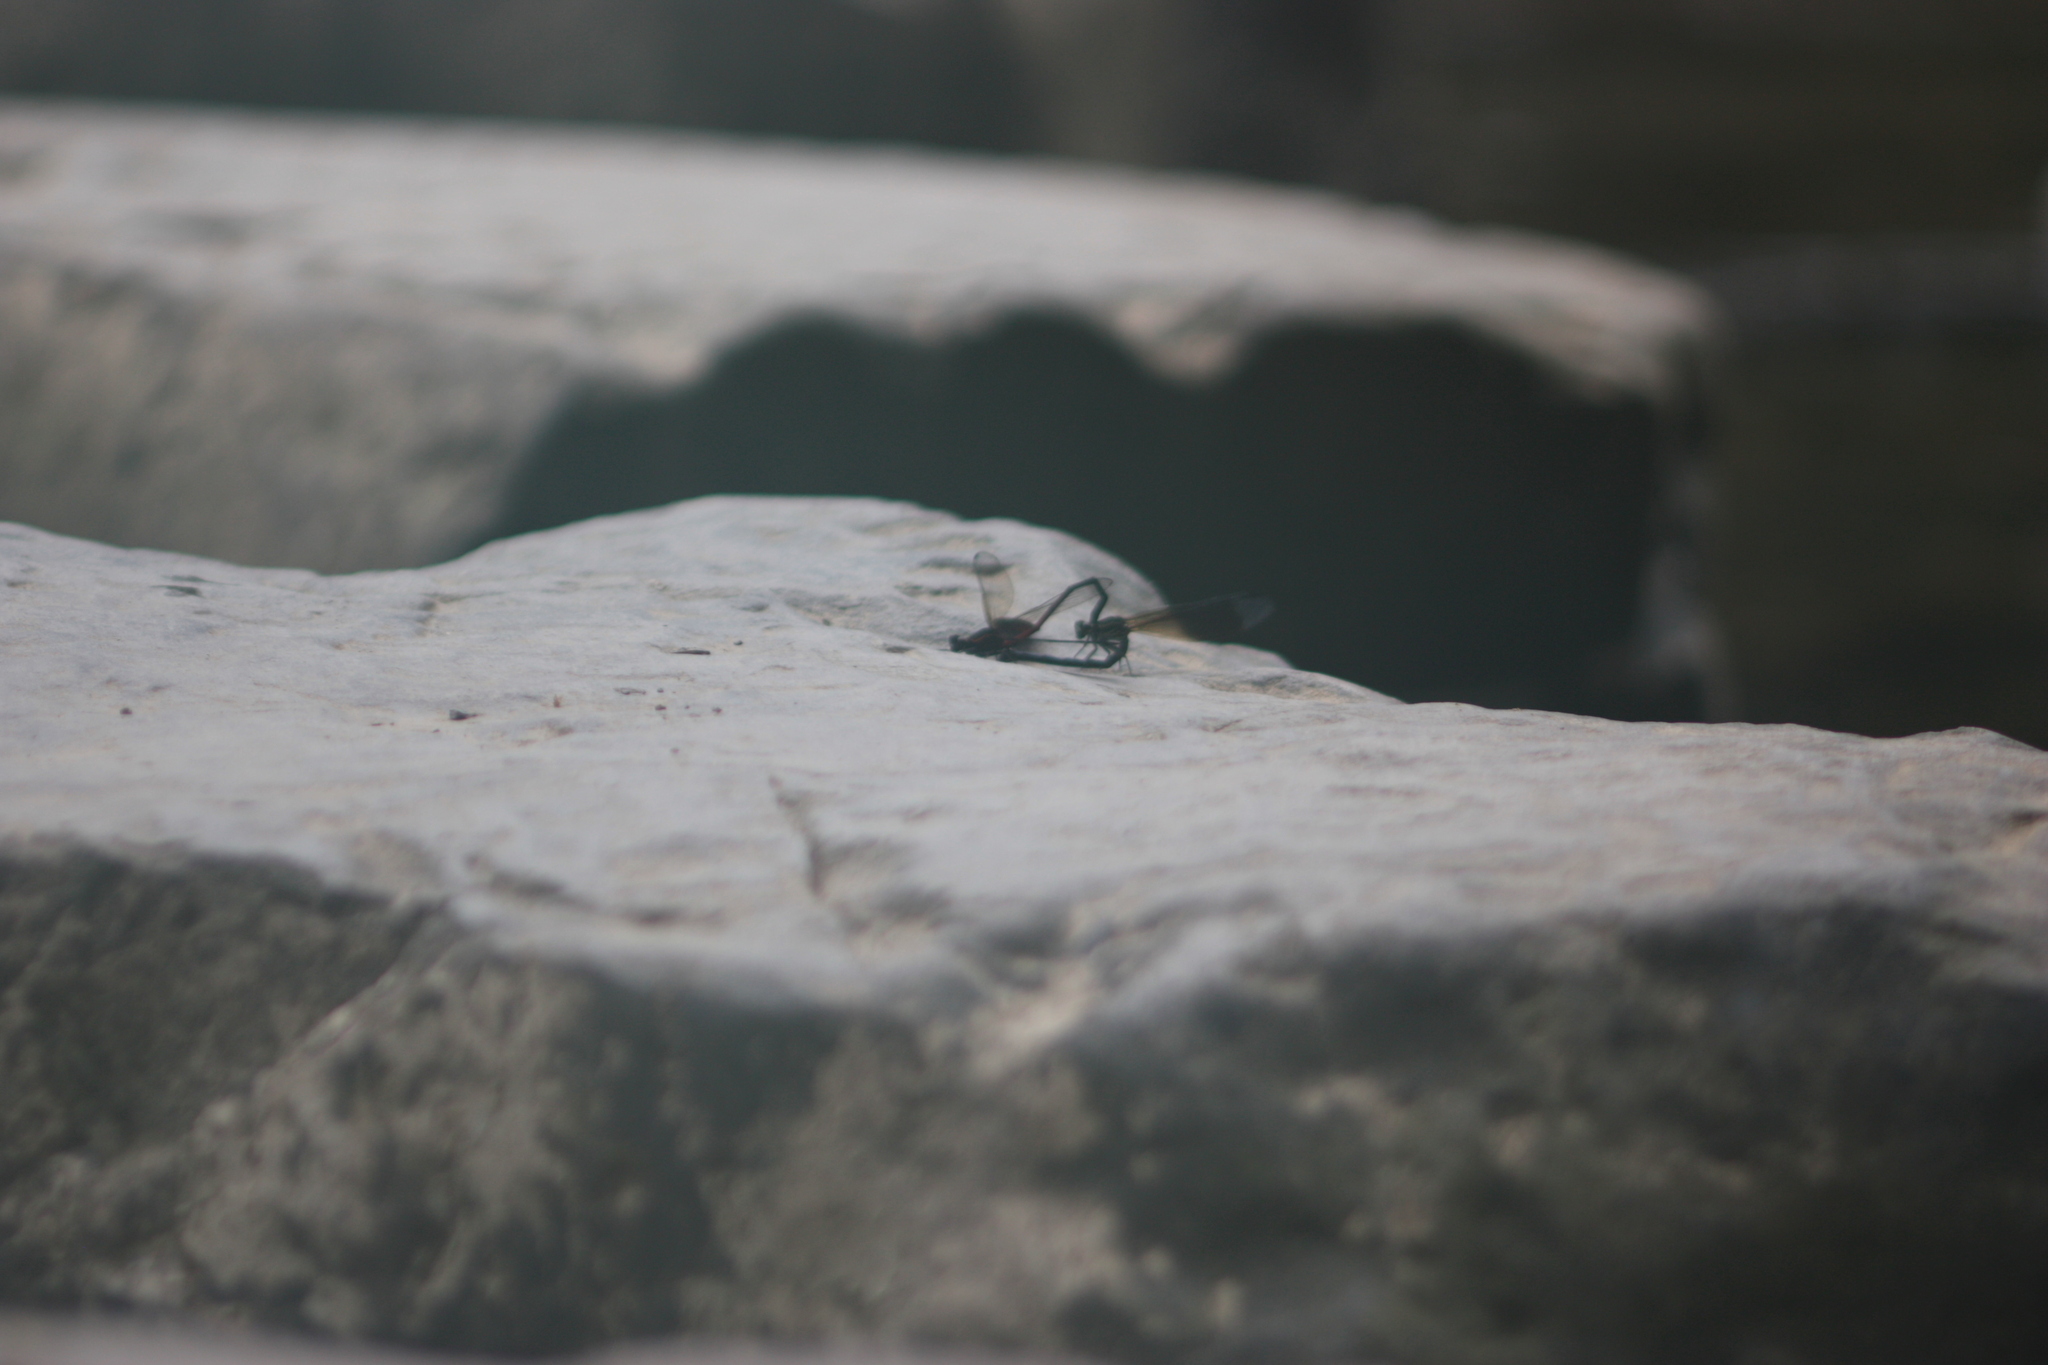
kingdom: Animalia
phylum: Arthropoda
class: Insecta
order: Odonata
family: Euphaeidae
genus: Euphaea
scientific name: Euphaea formosa
